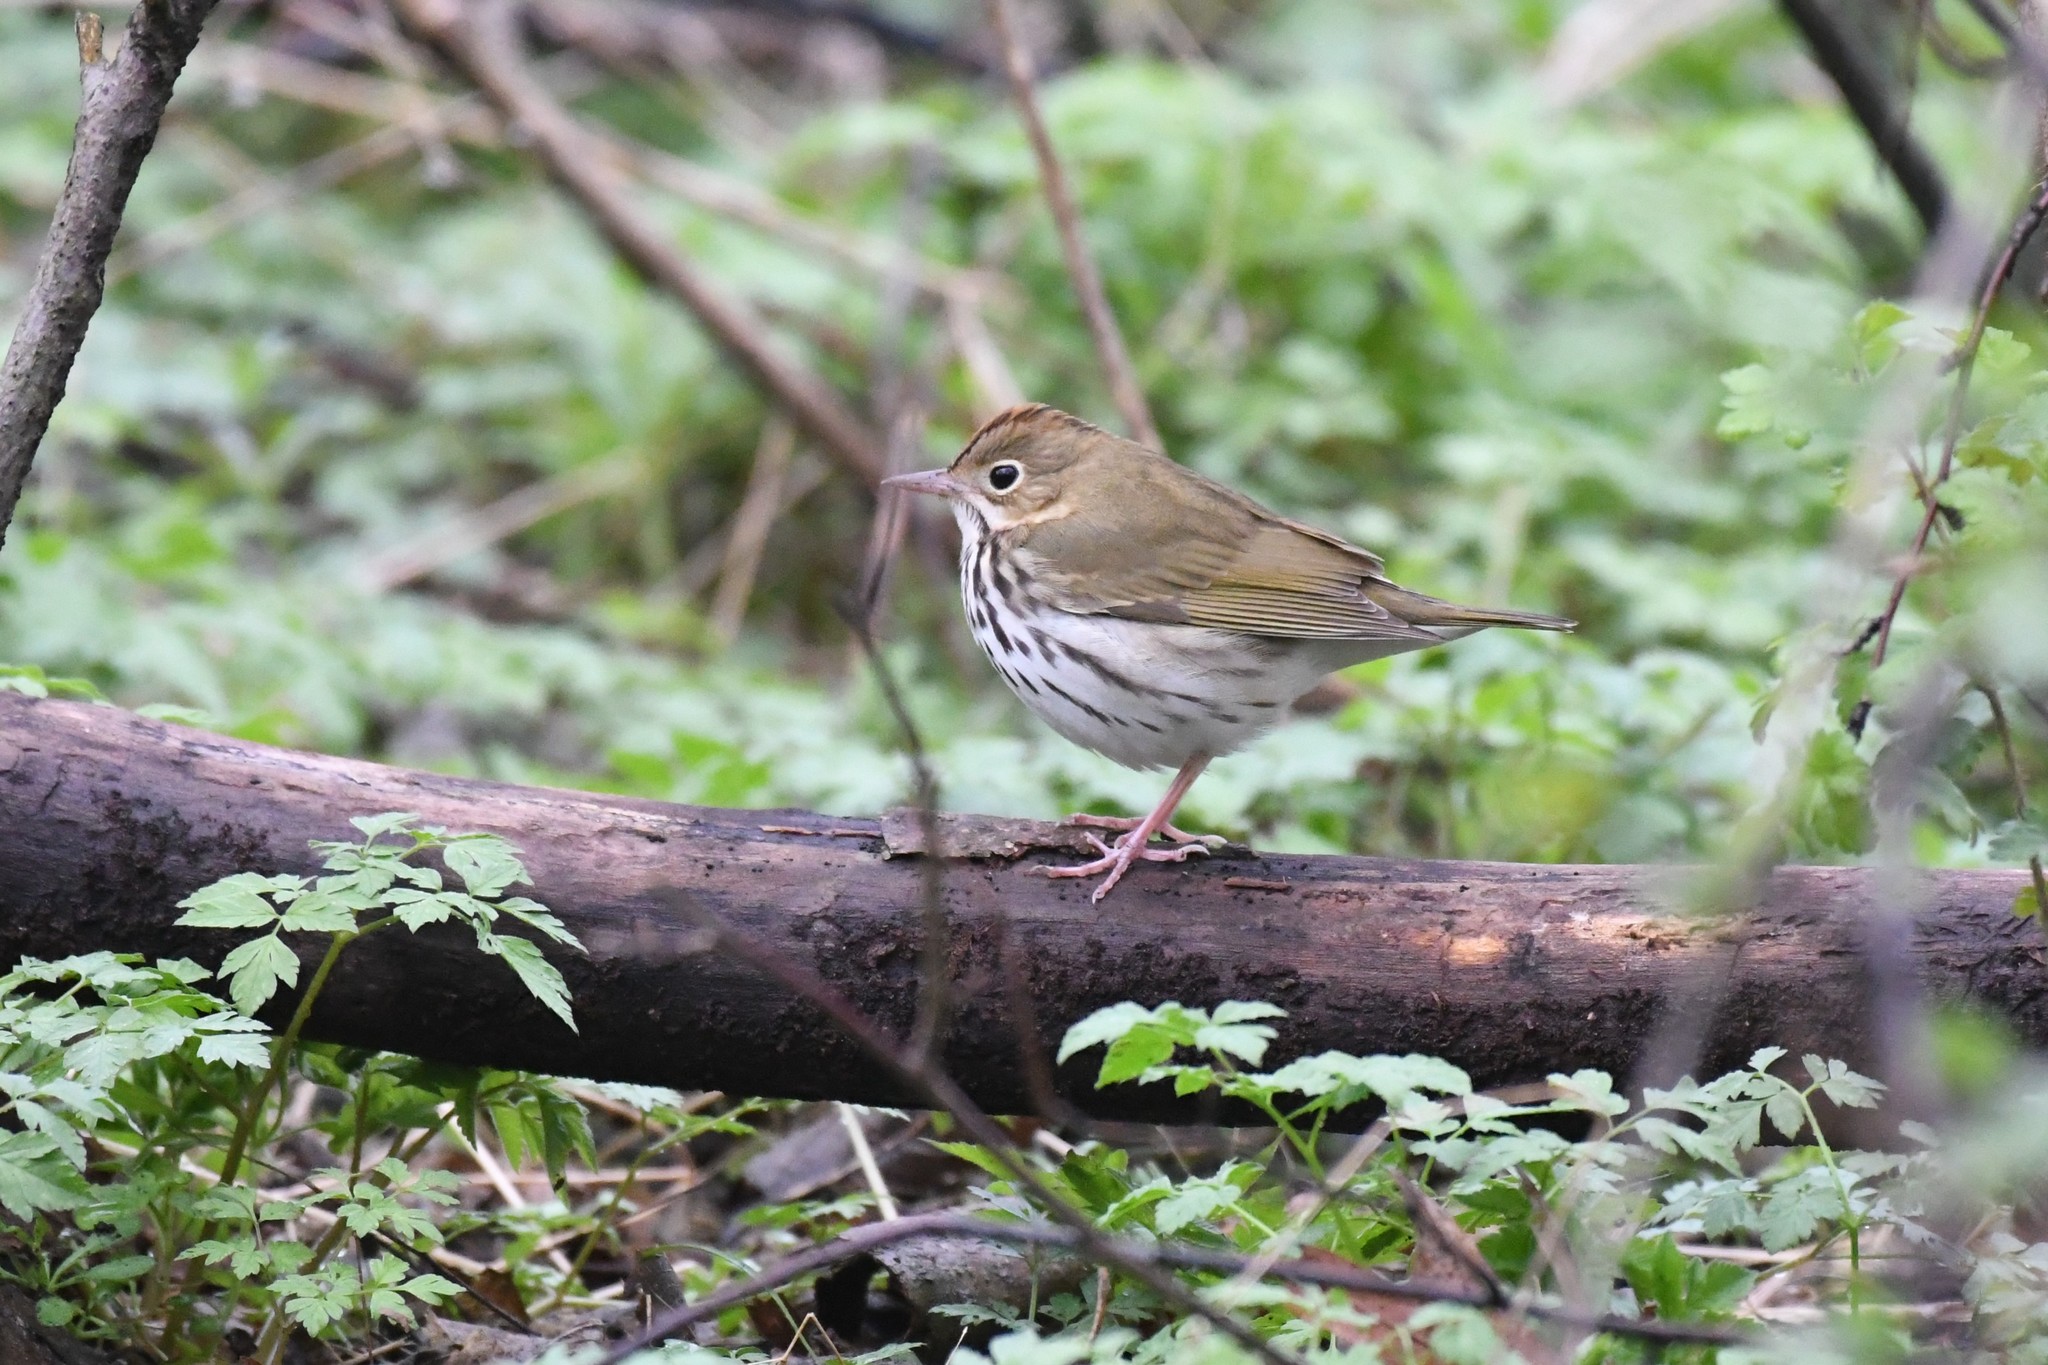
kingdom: Animalia
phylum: Chordata
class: Aves
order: Passeriformes
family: Parulidae
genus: Seiurus
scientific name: Seiurus aurocapilla
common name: Ovenbird
